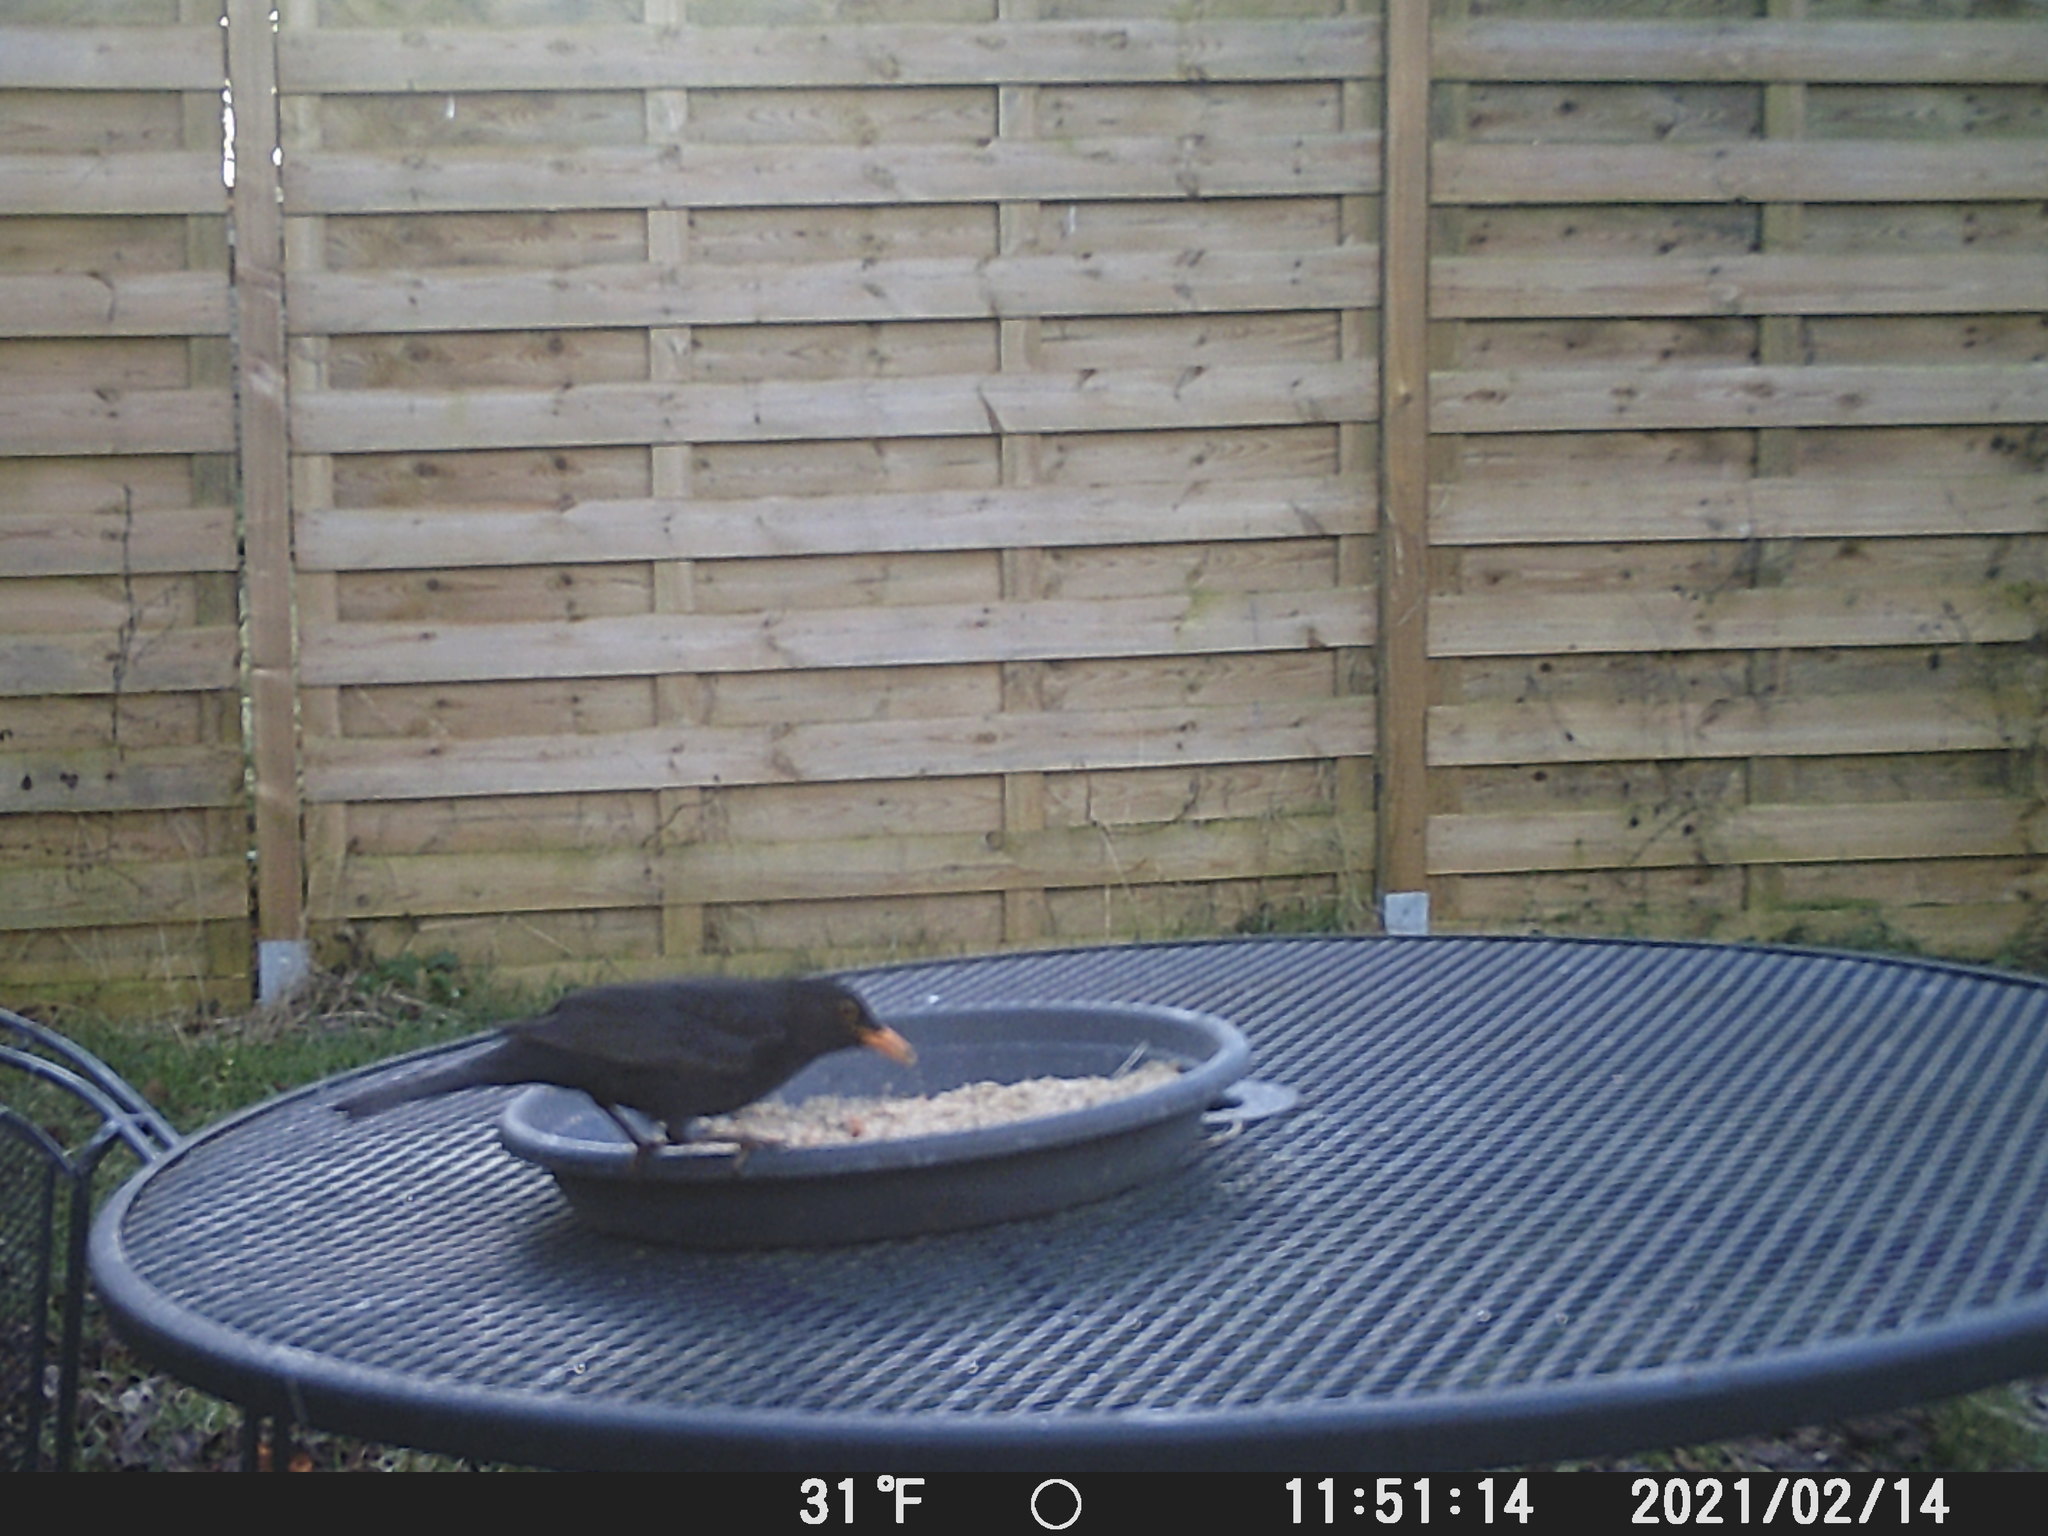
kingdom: Animalia
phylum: Chordata
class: Aves
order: Passeriformes
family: Turdidae
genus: Turdus
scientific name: Turdus merula
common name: Common blackbird
